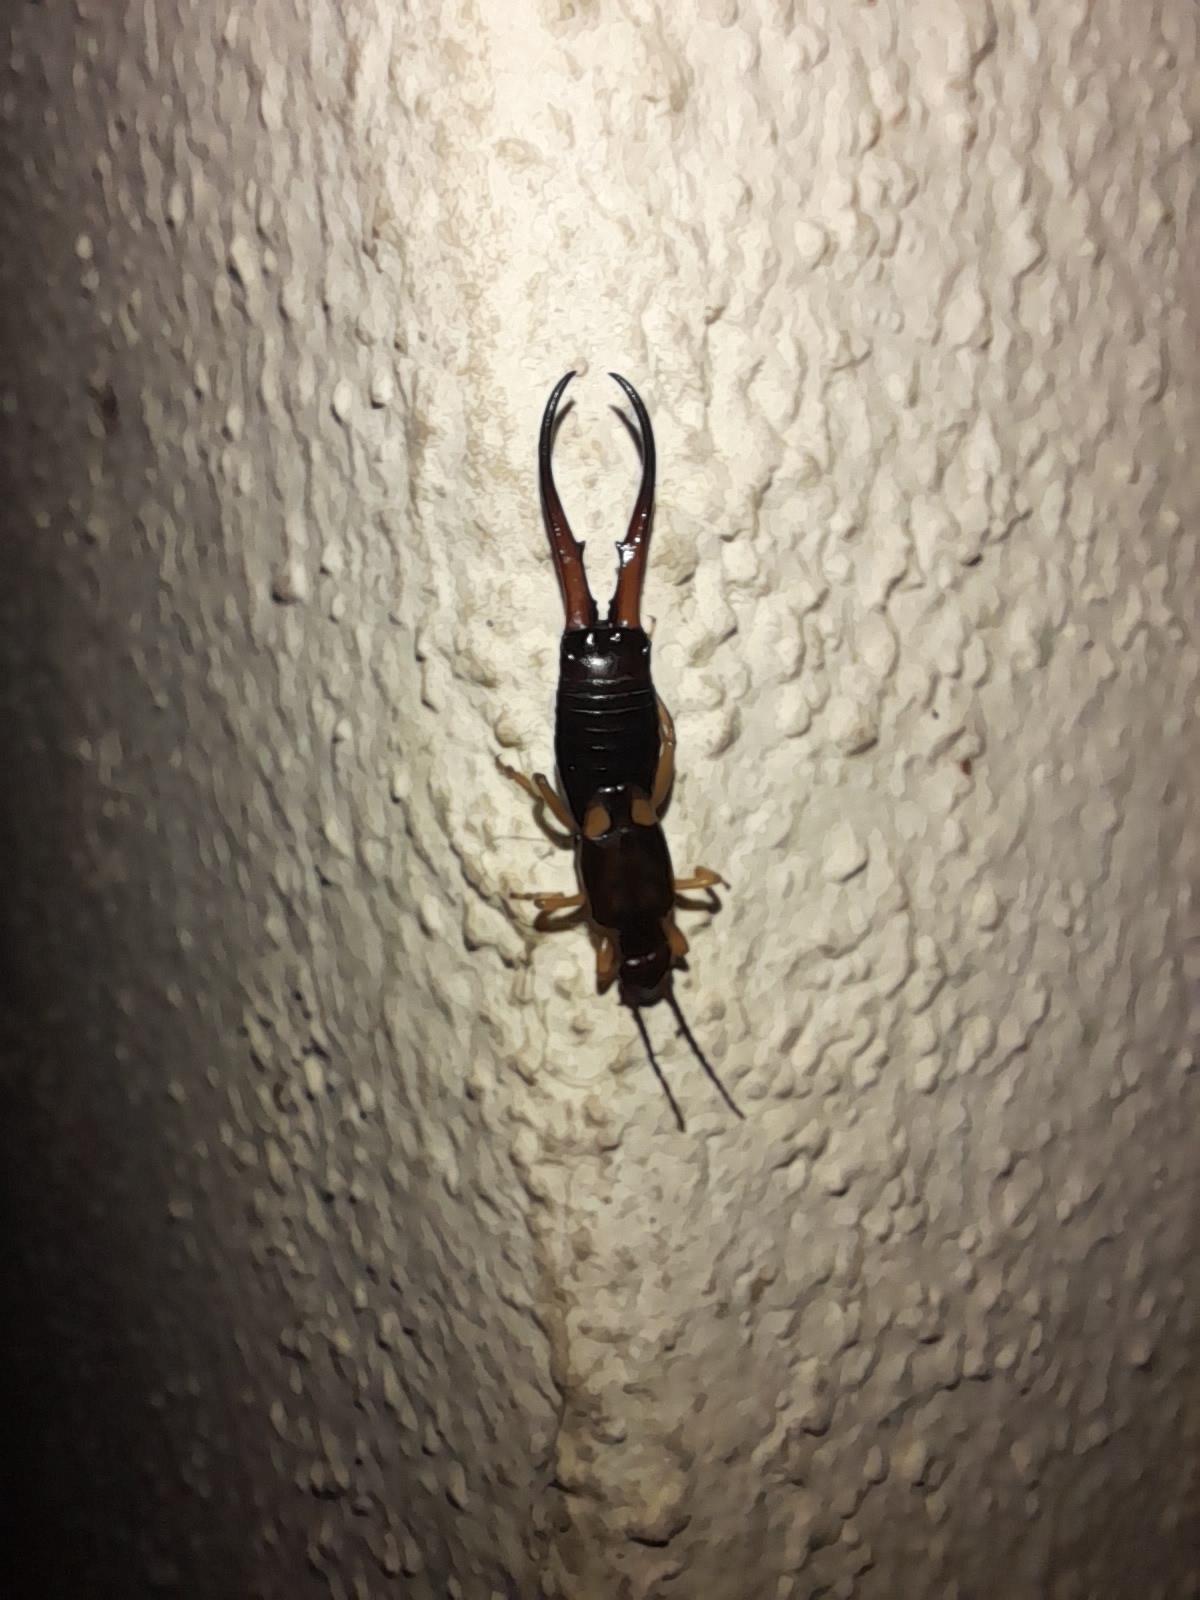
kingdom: Animalia
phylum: Arthropoda
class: Insecta
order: Dermaptera
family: Forficulidae
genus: Forficula
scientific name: Forficula
